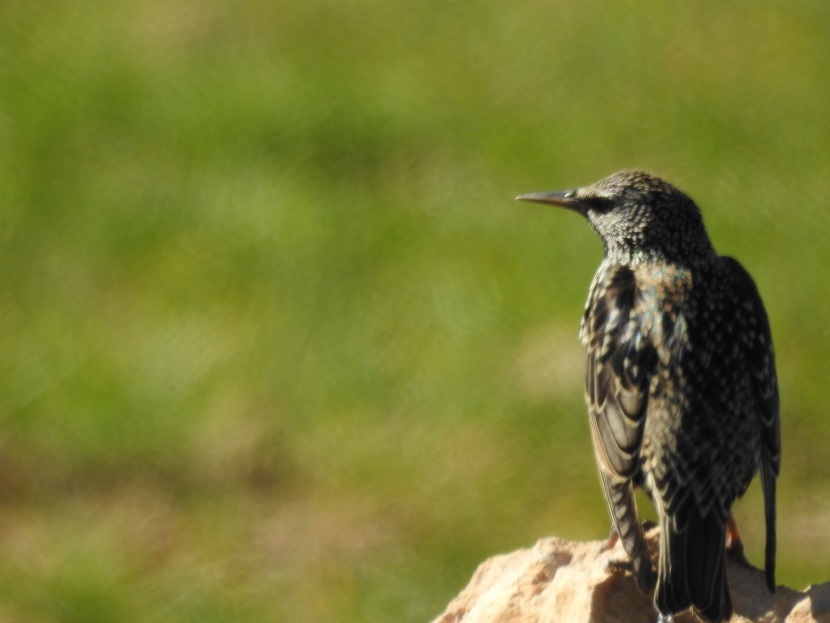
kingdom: Animalia
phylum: Chordata
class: Aves
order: Passeriformes
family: Sturnidae
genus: Sturnus
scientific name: Sturnus vulgaris
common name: Common starling
